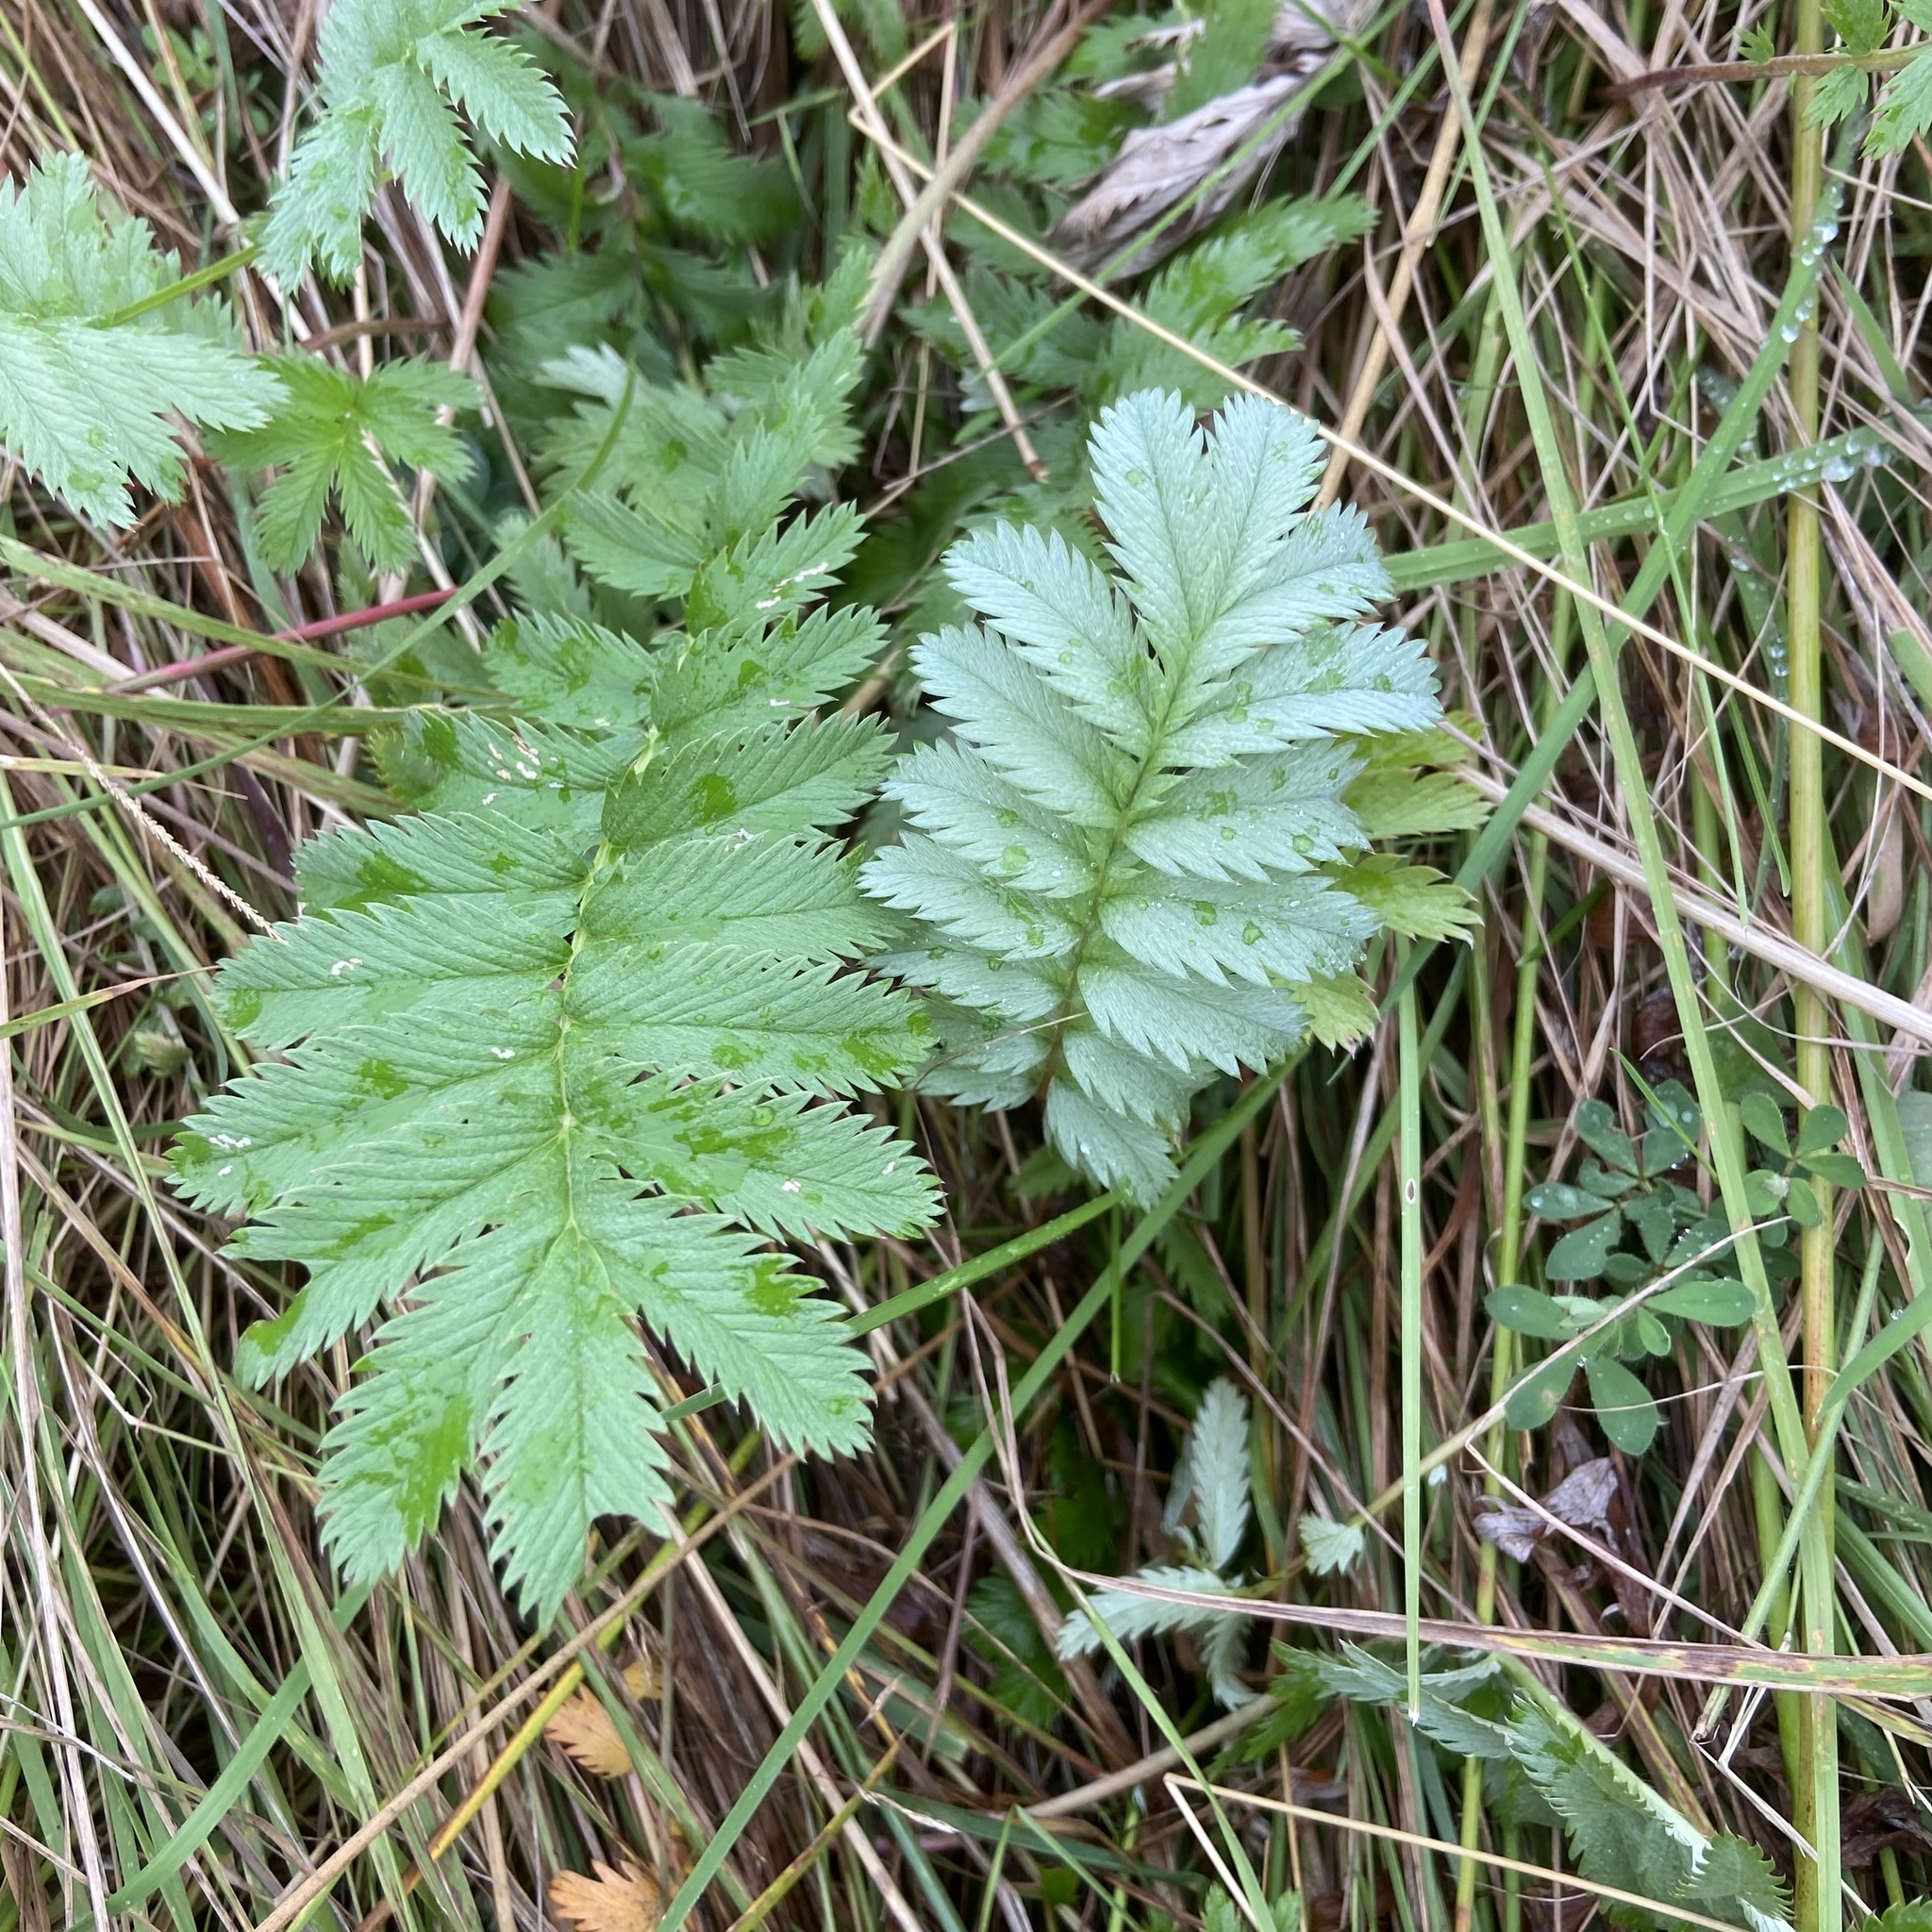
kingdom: Plantae
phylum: Tracheophyta
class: Magnoliopsida
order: Rosales
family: Rosaceae
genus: Argentina
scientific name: Argentina anserina
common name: Common silverweed
